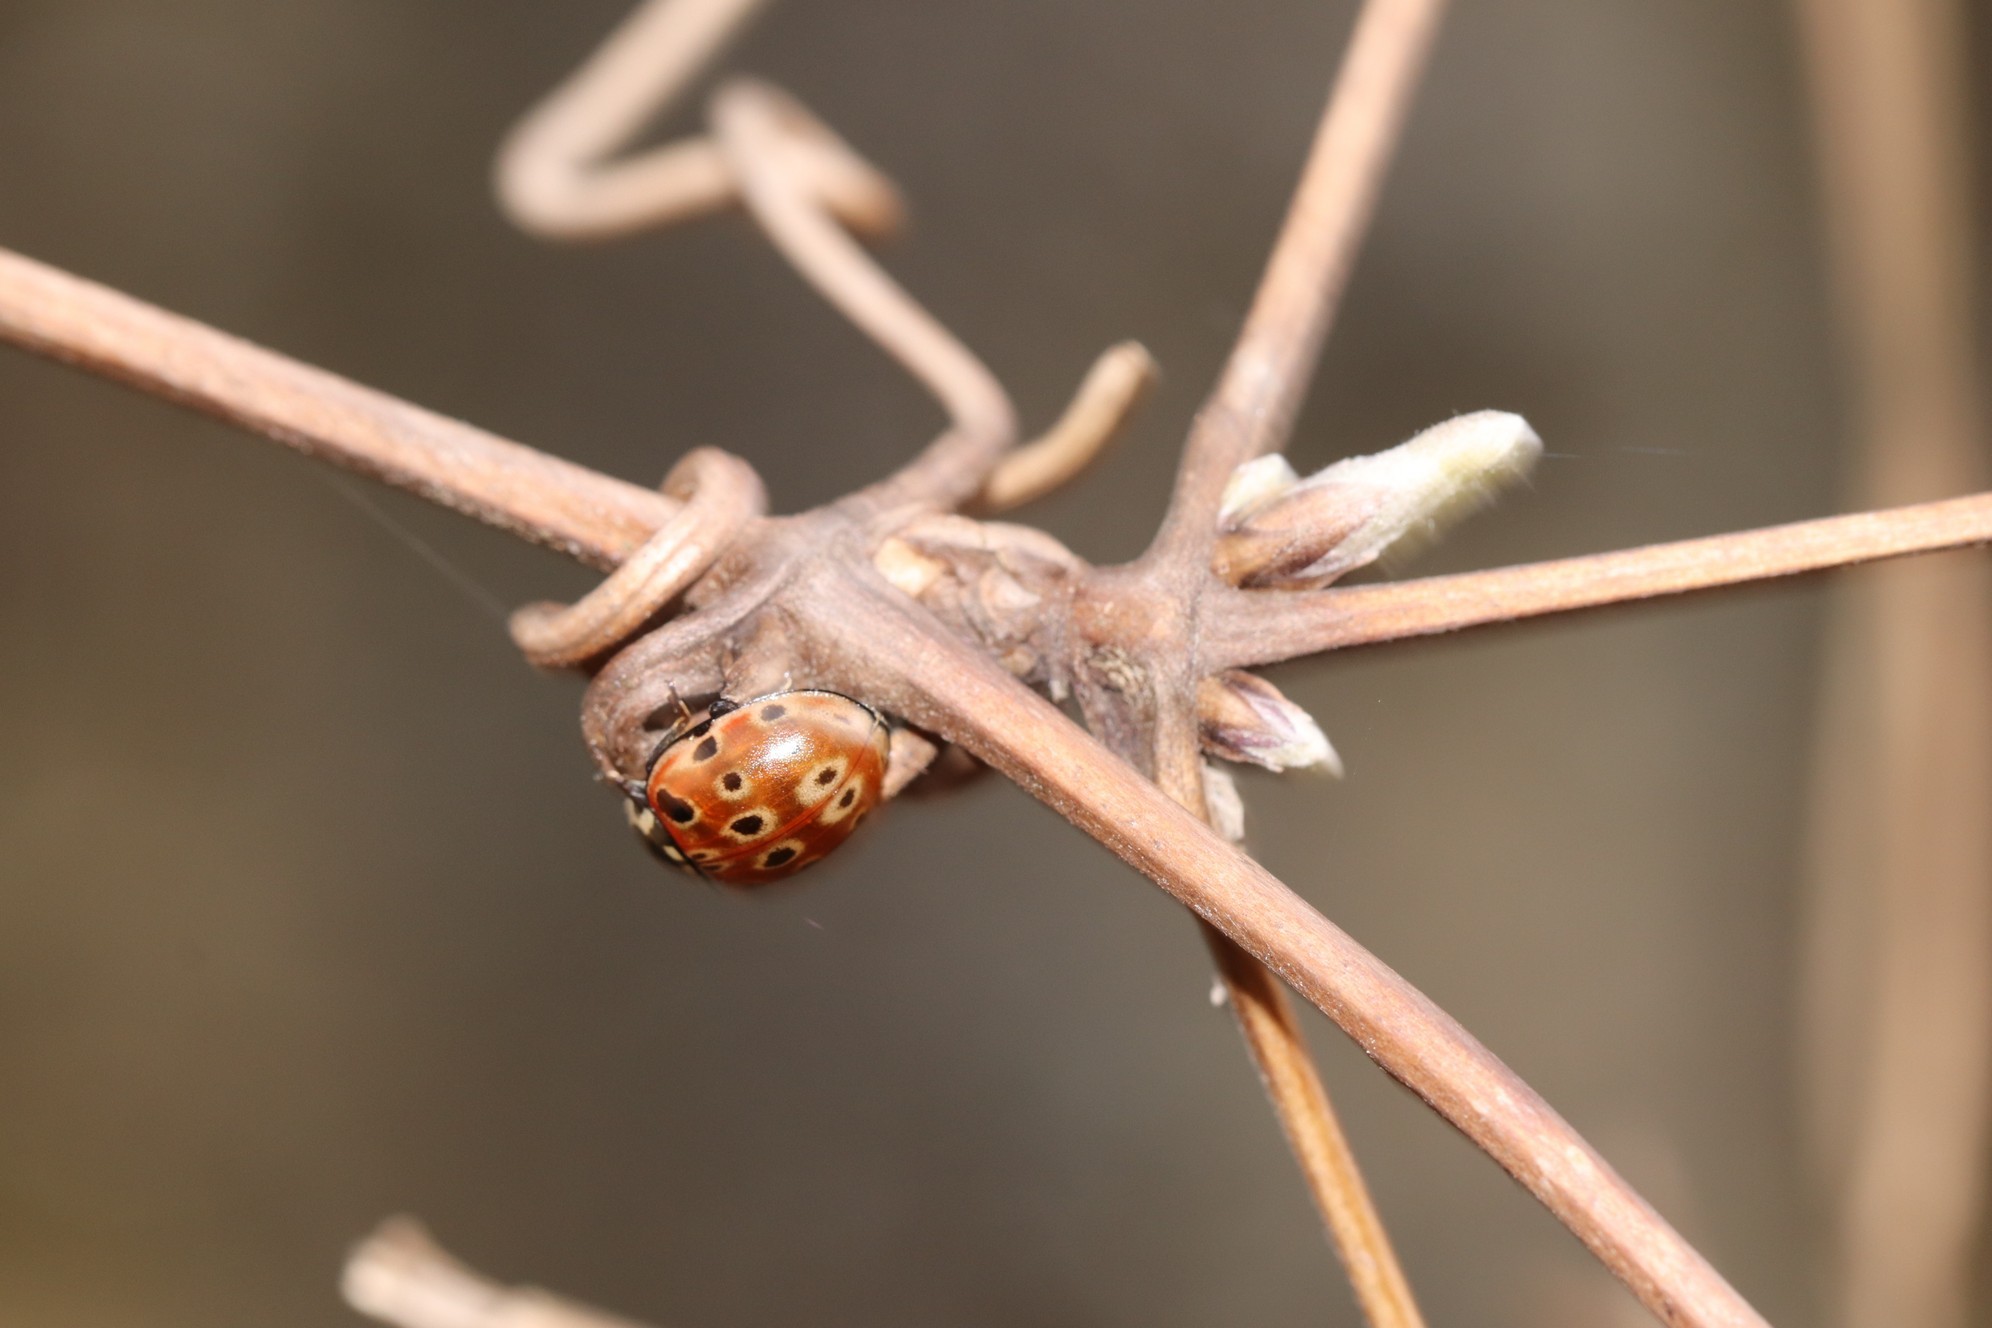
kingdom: Animalia
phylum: Arthropoda
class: Insecta
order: Coleoptera
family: Coccinellidae
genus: Anatis
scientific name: Anatis ocellata
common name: Eyed ladybird
